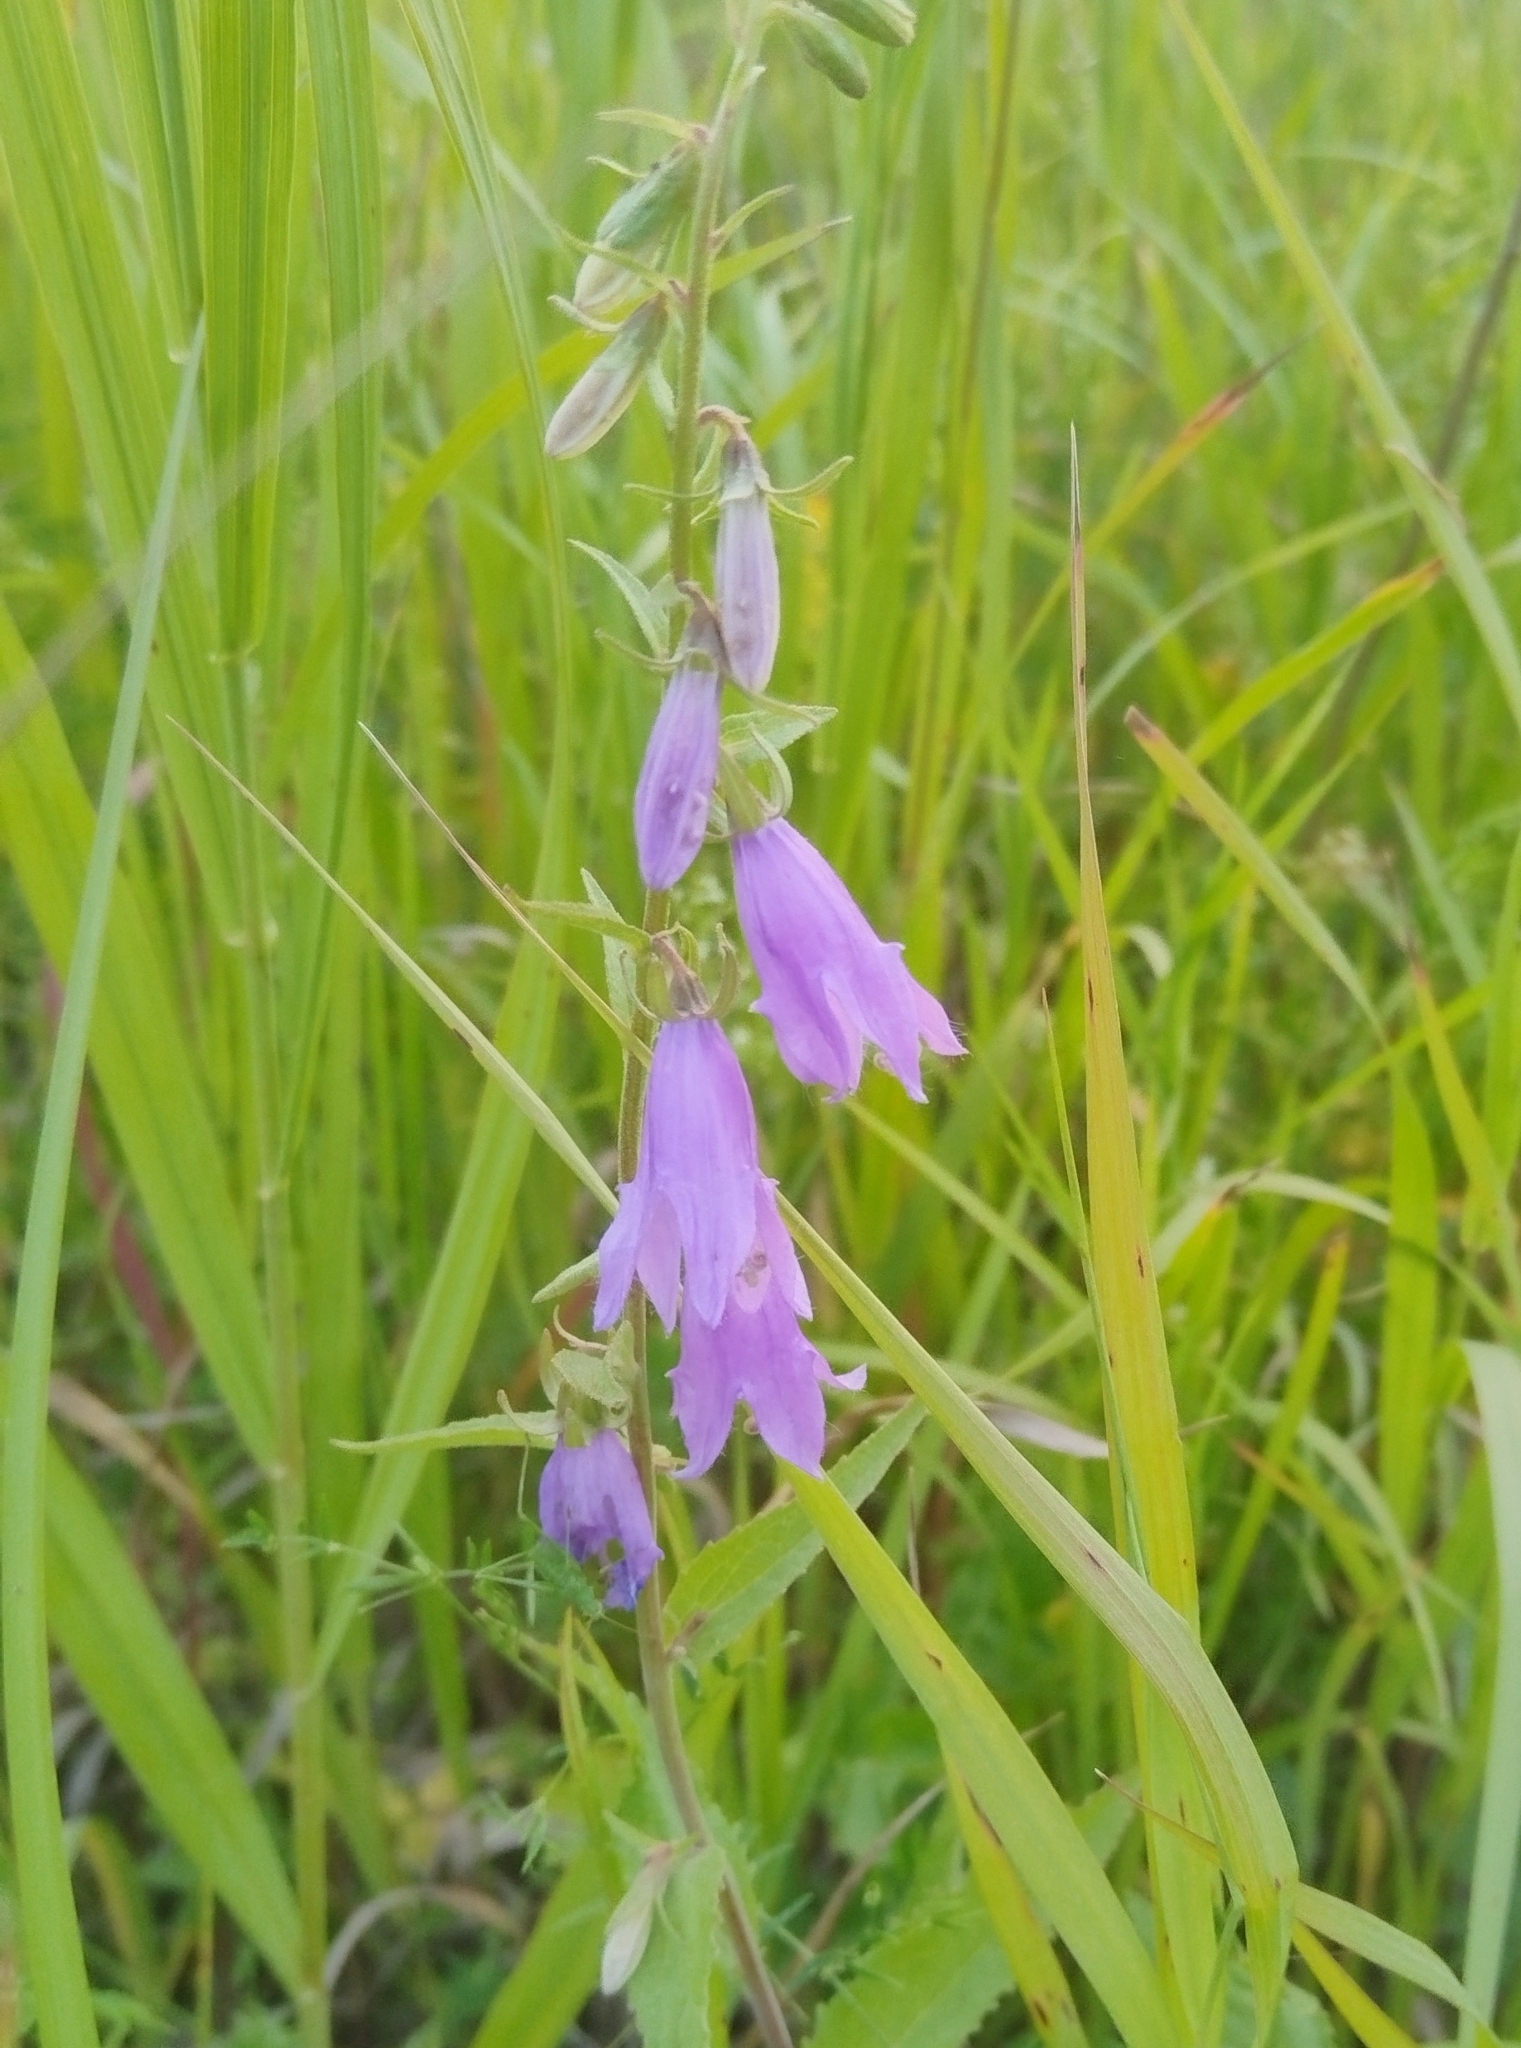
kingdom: Plantae
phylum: Tracheophyta
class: Magnoliopsida
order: Asterales
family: Campanulaceae
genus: Campanula
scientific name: Campanula rapunculoides
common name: Creeping bellflower
